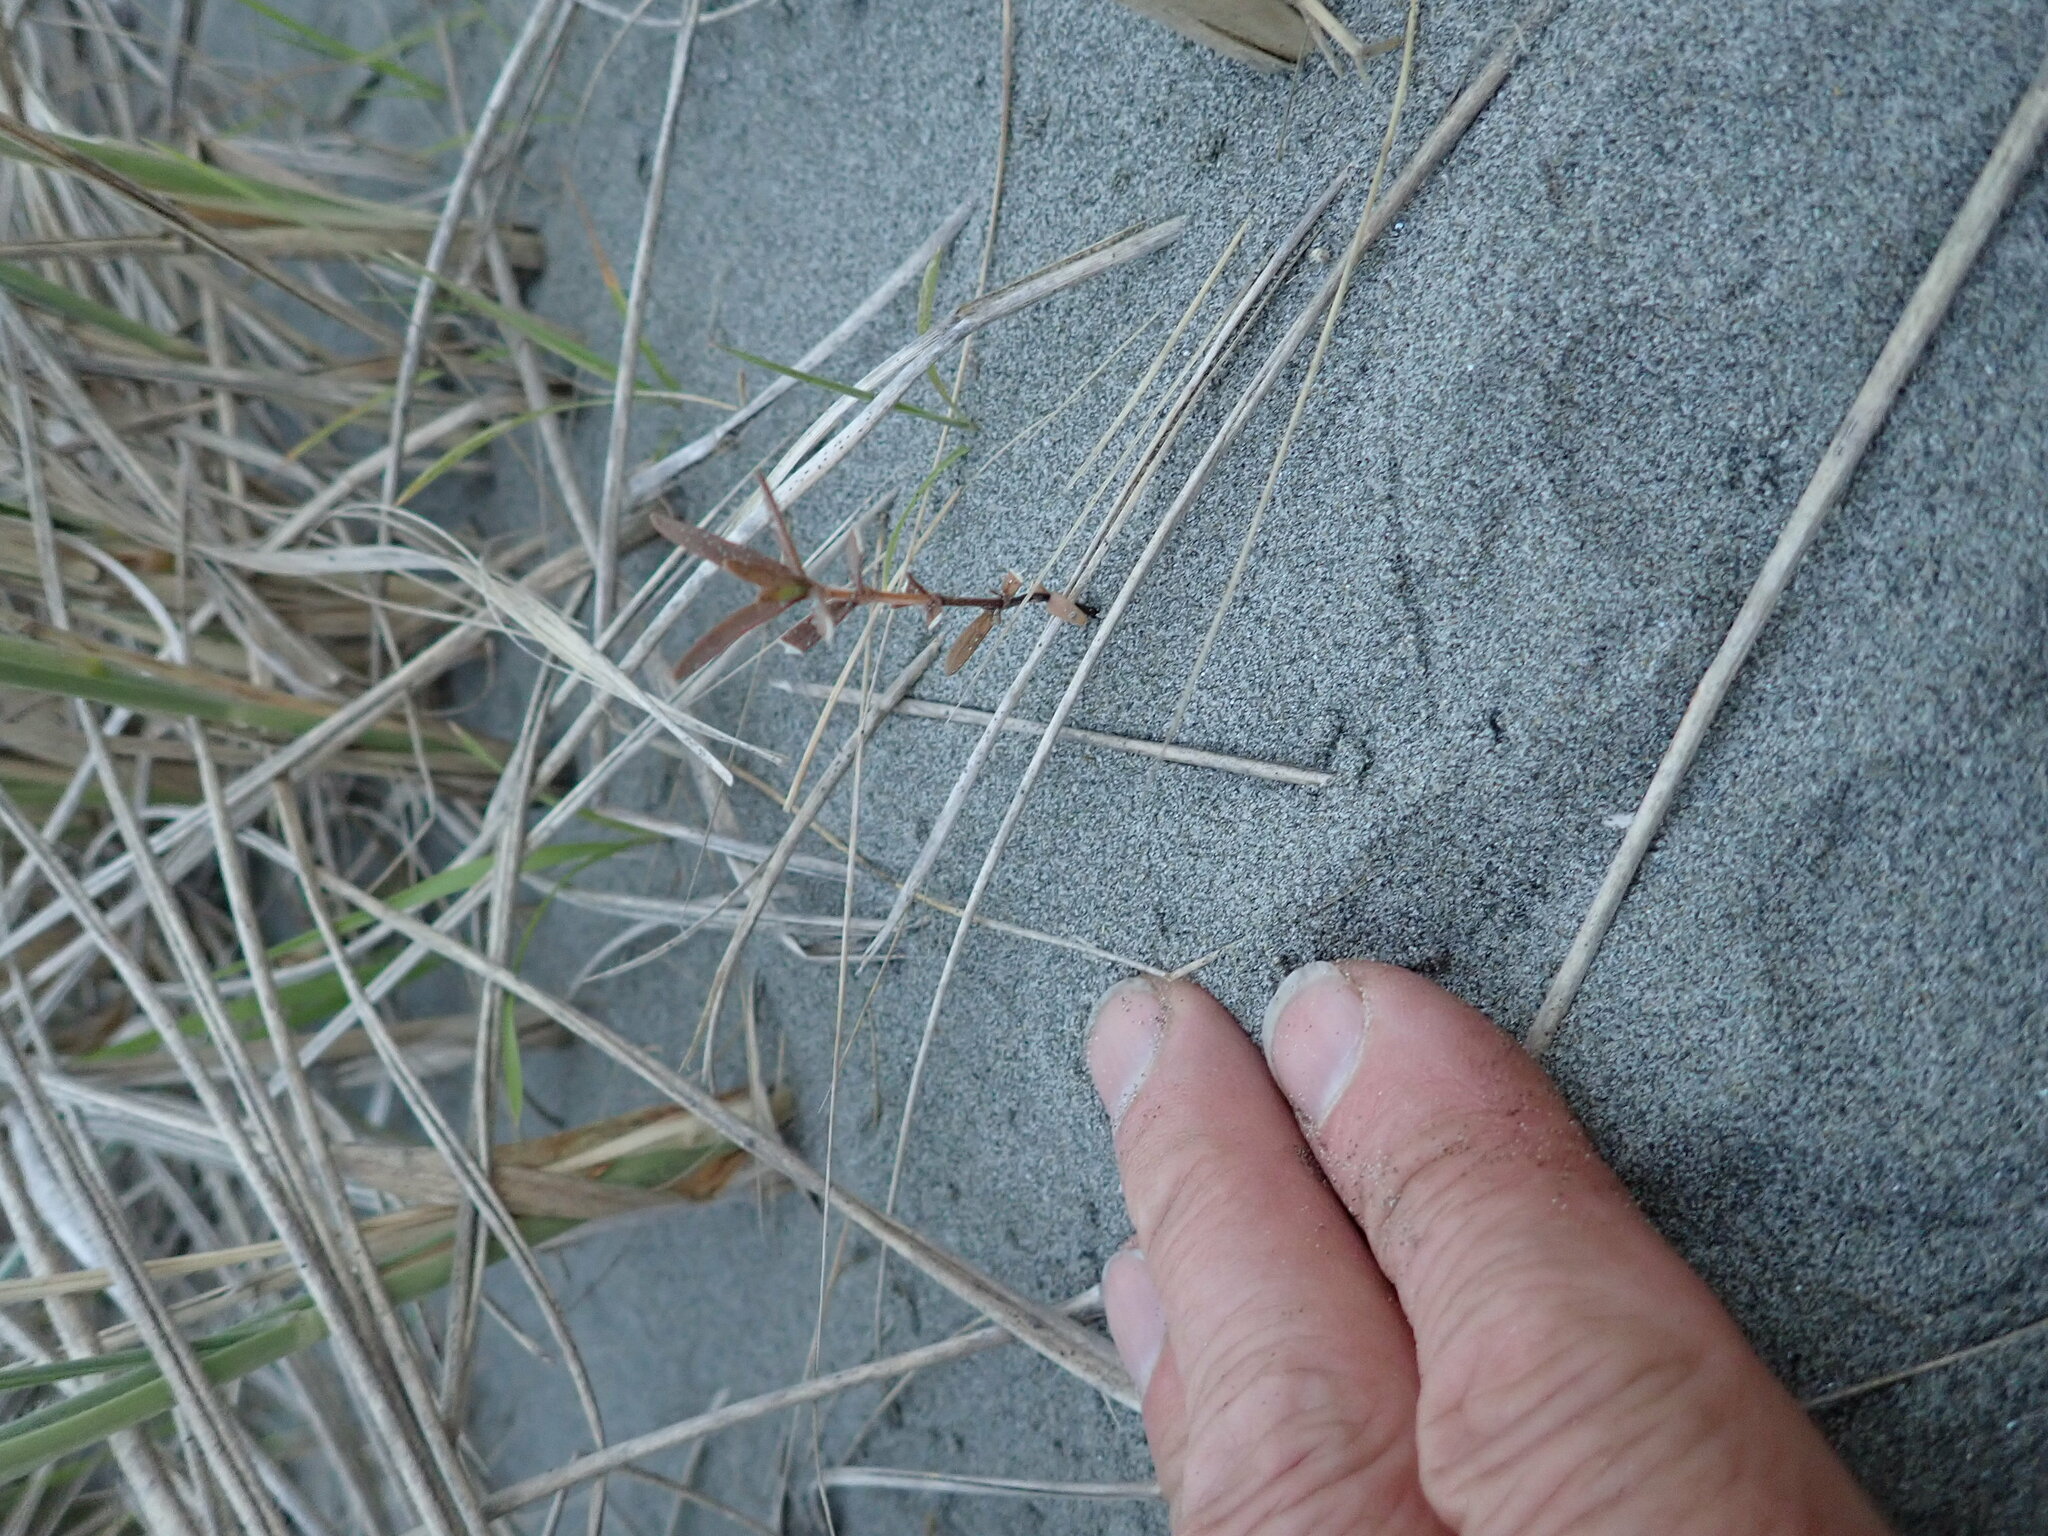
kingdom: Plantae
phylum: Tracheophyta
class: Magnoliopsida
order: Gentianales
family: Rubiaceae
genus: Coprosma
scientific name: Coprosma acerosa
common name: Sand coprosma
